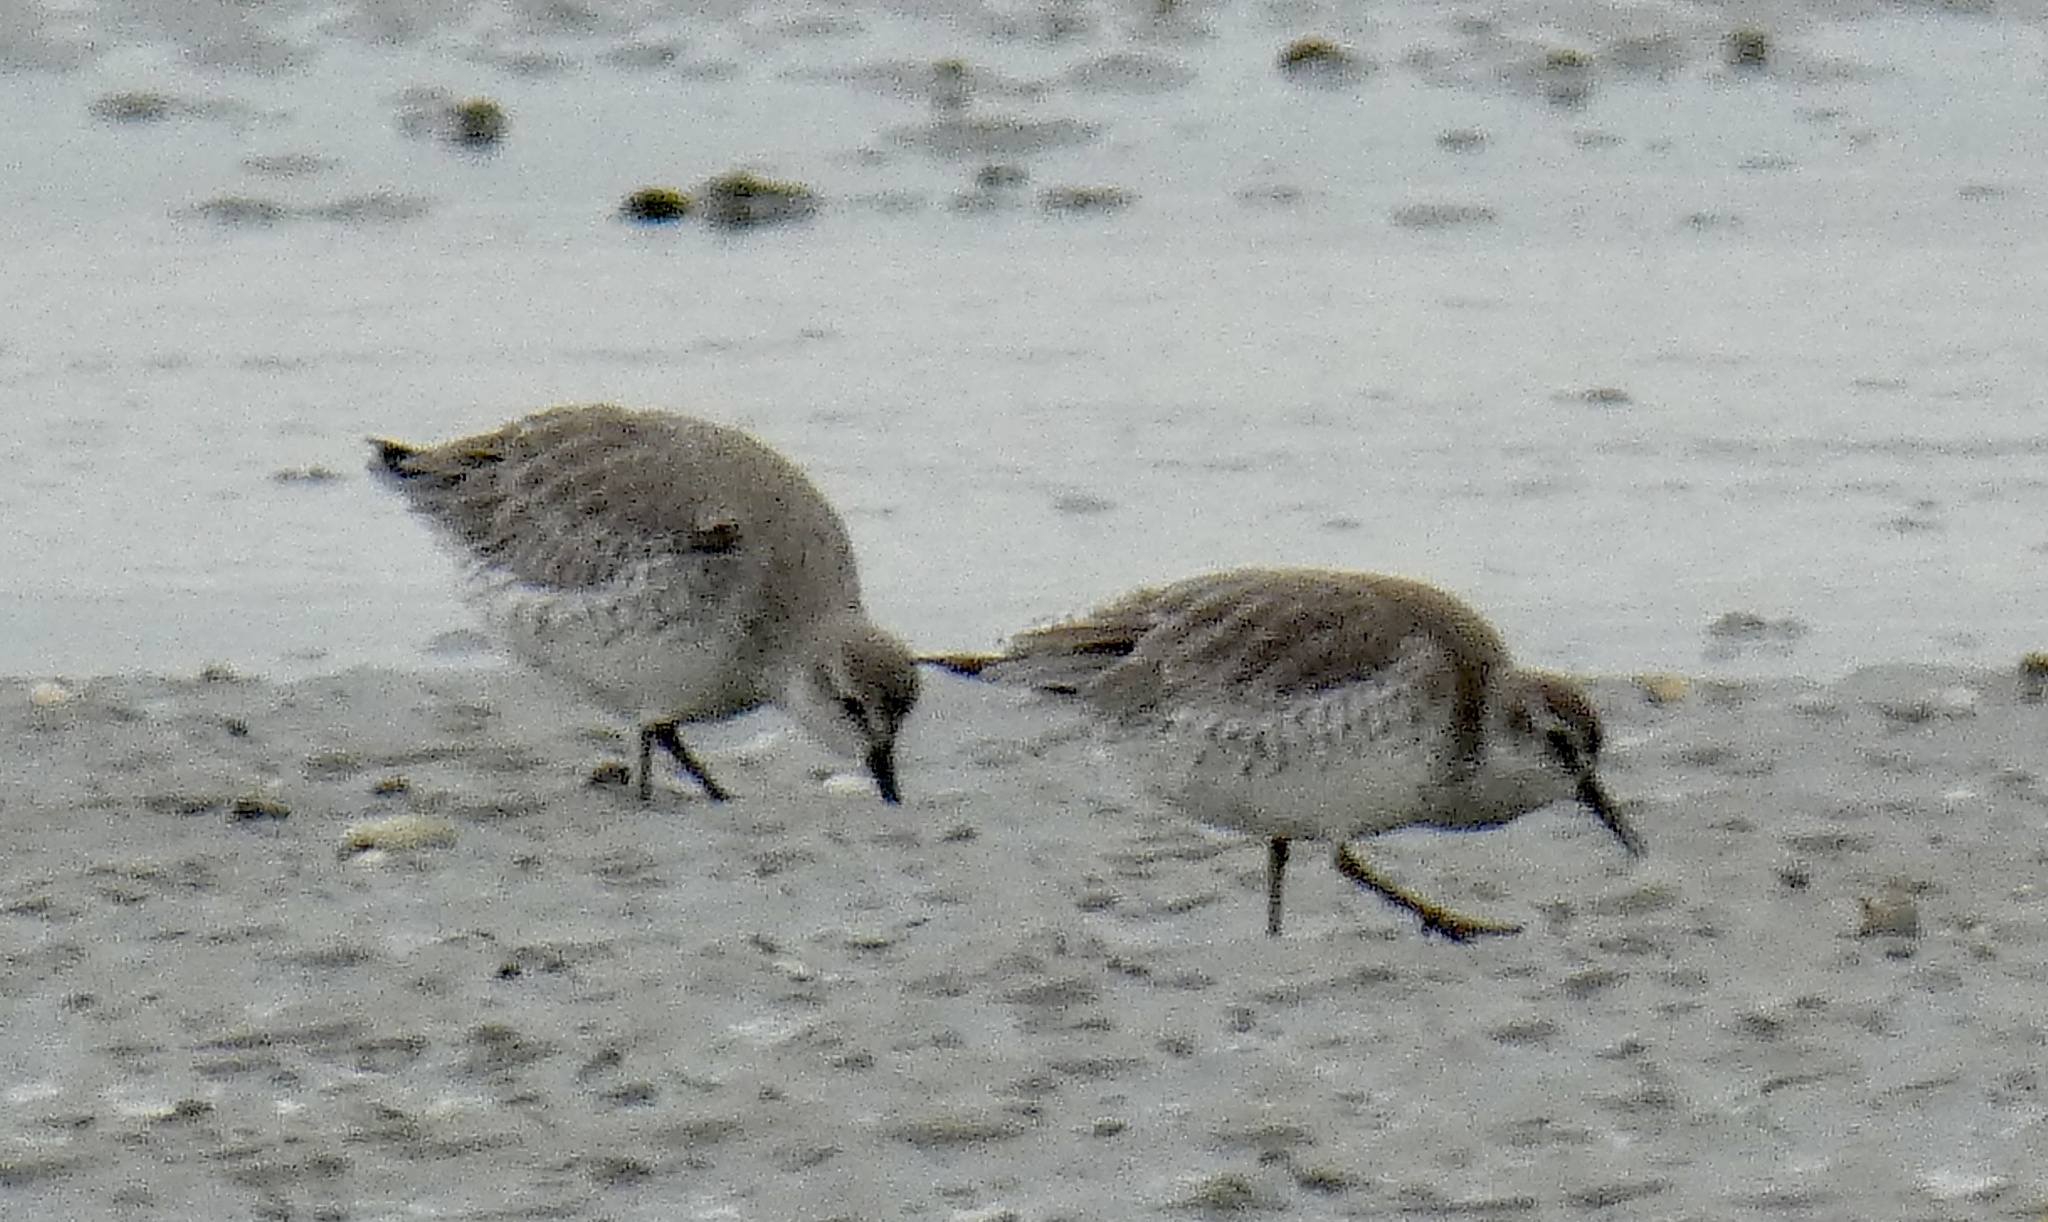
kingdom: Animalia
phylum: Chordata
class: Aves
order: Charadriiformes
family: Scolopacidae
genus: Calidris
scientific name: Calidris canutus
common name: Red knot
